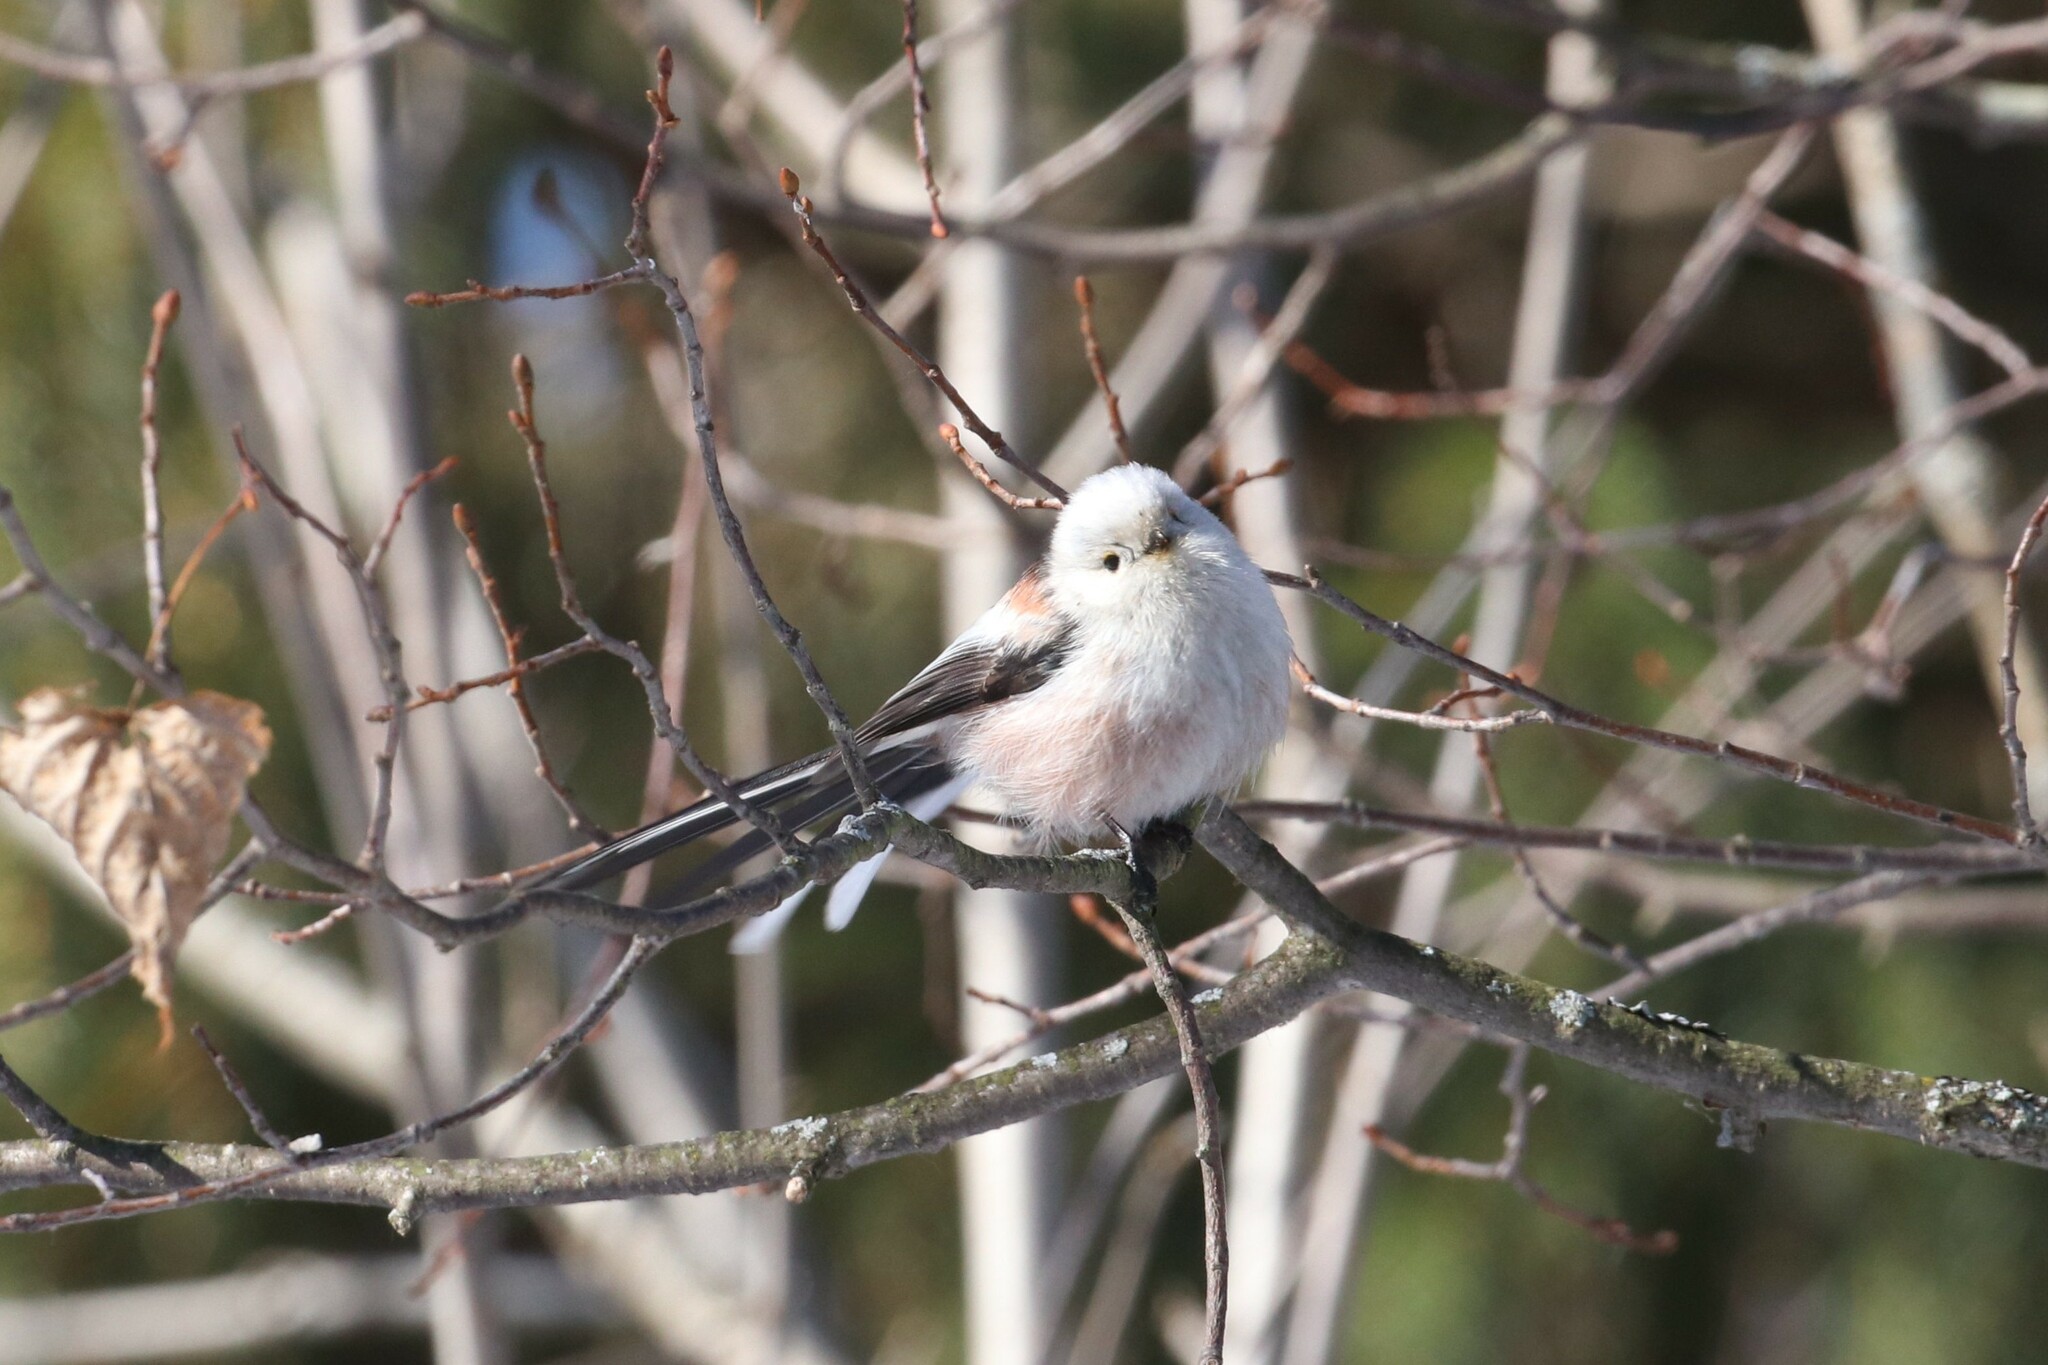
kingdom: Animalia
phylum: Chordata
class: Aves
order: Passeriformes
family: Aegithalidae
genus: Aegithalos
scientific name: Aegithalos caudatus
